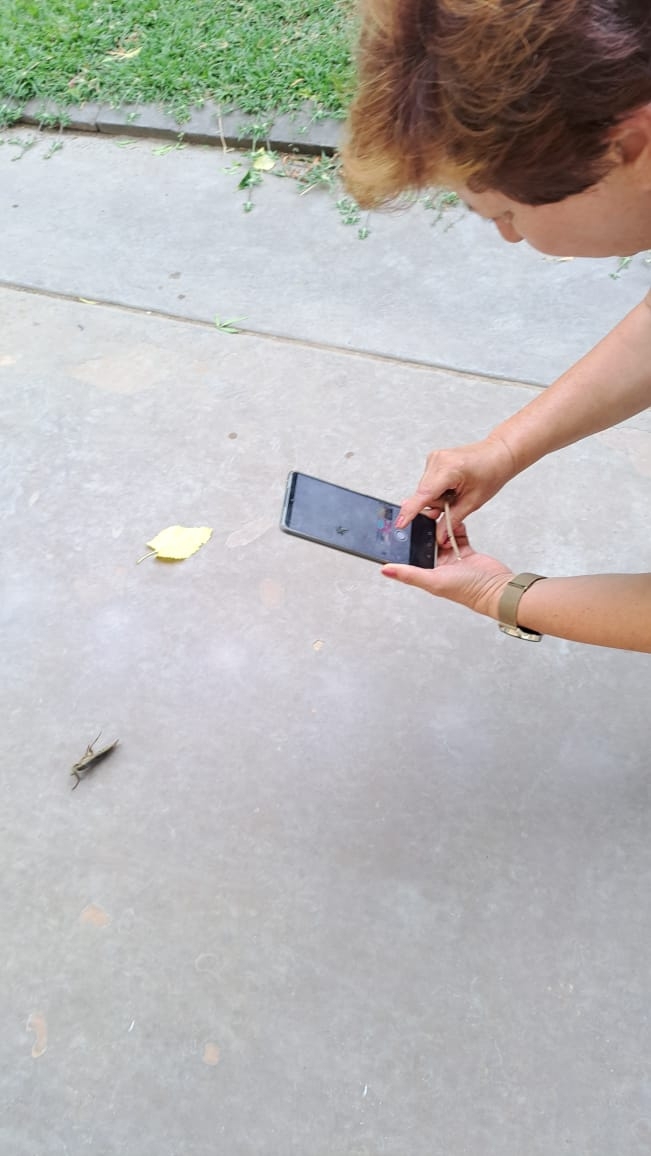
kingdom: Animalia
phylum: Arthropoda
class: Insecta
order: Hemiptera
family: Belostomatidae
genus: Lethocerus
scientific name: Lethocerus cordofanus
